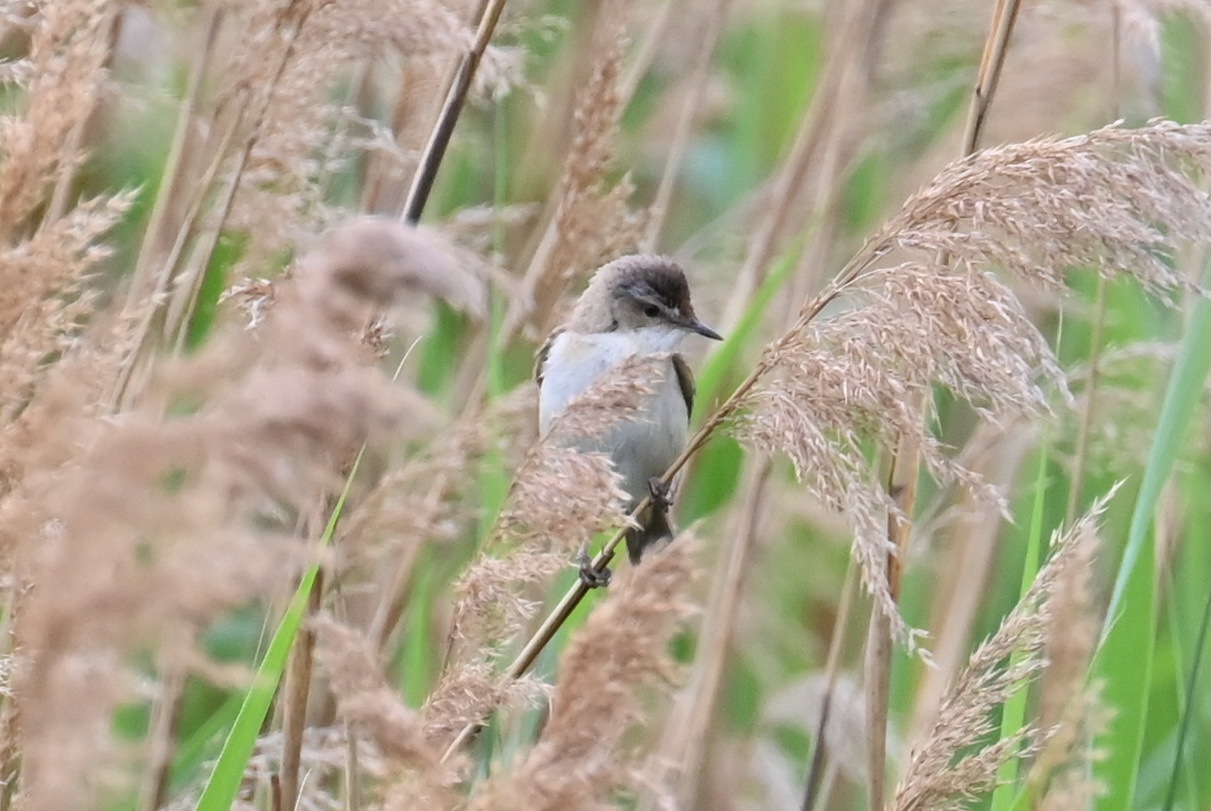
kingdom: Animalia
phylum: Chordata
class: Aves
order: Passeriformes
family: Acrocephalidae
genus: Acrocephalus
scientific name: Acrocephalus agricola
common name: Paddyfield warbler
